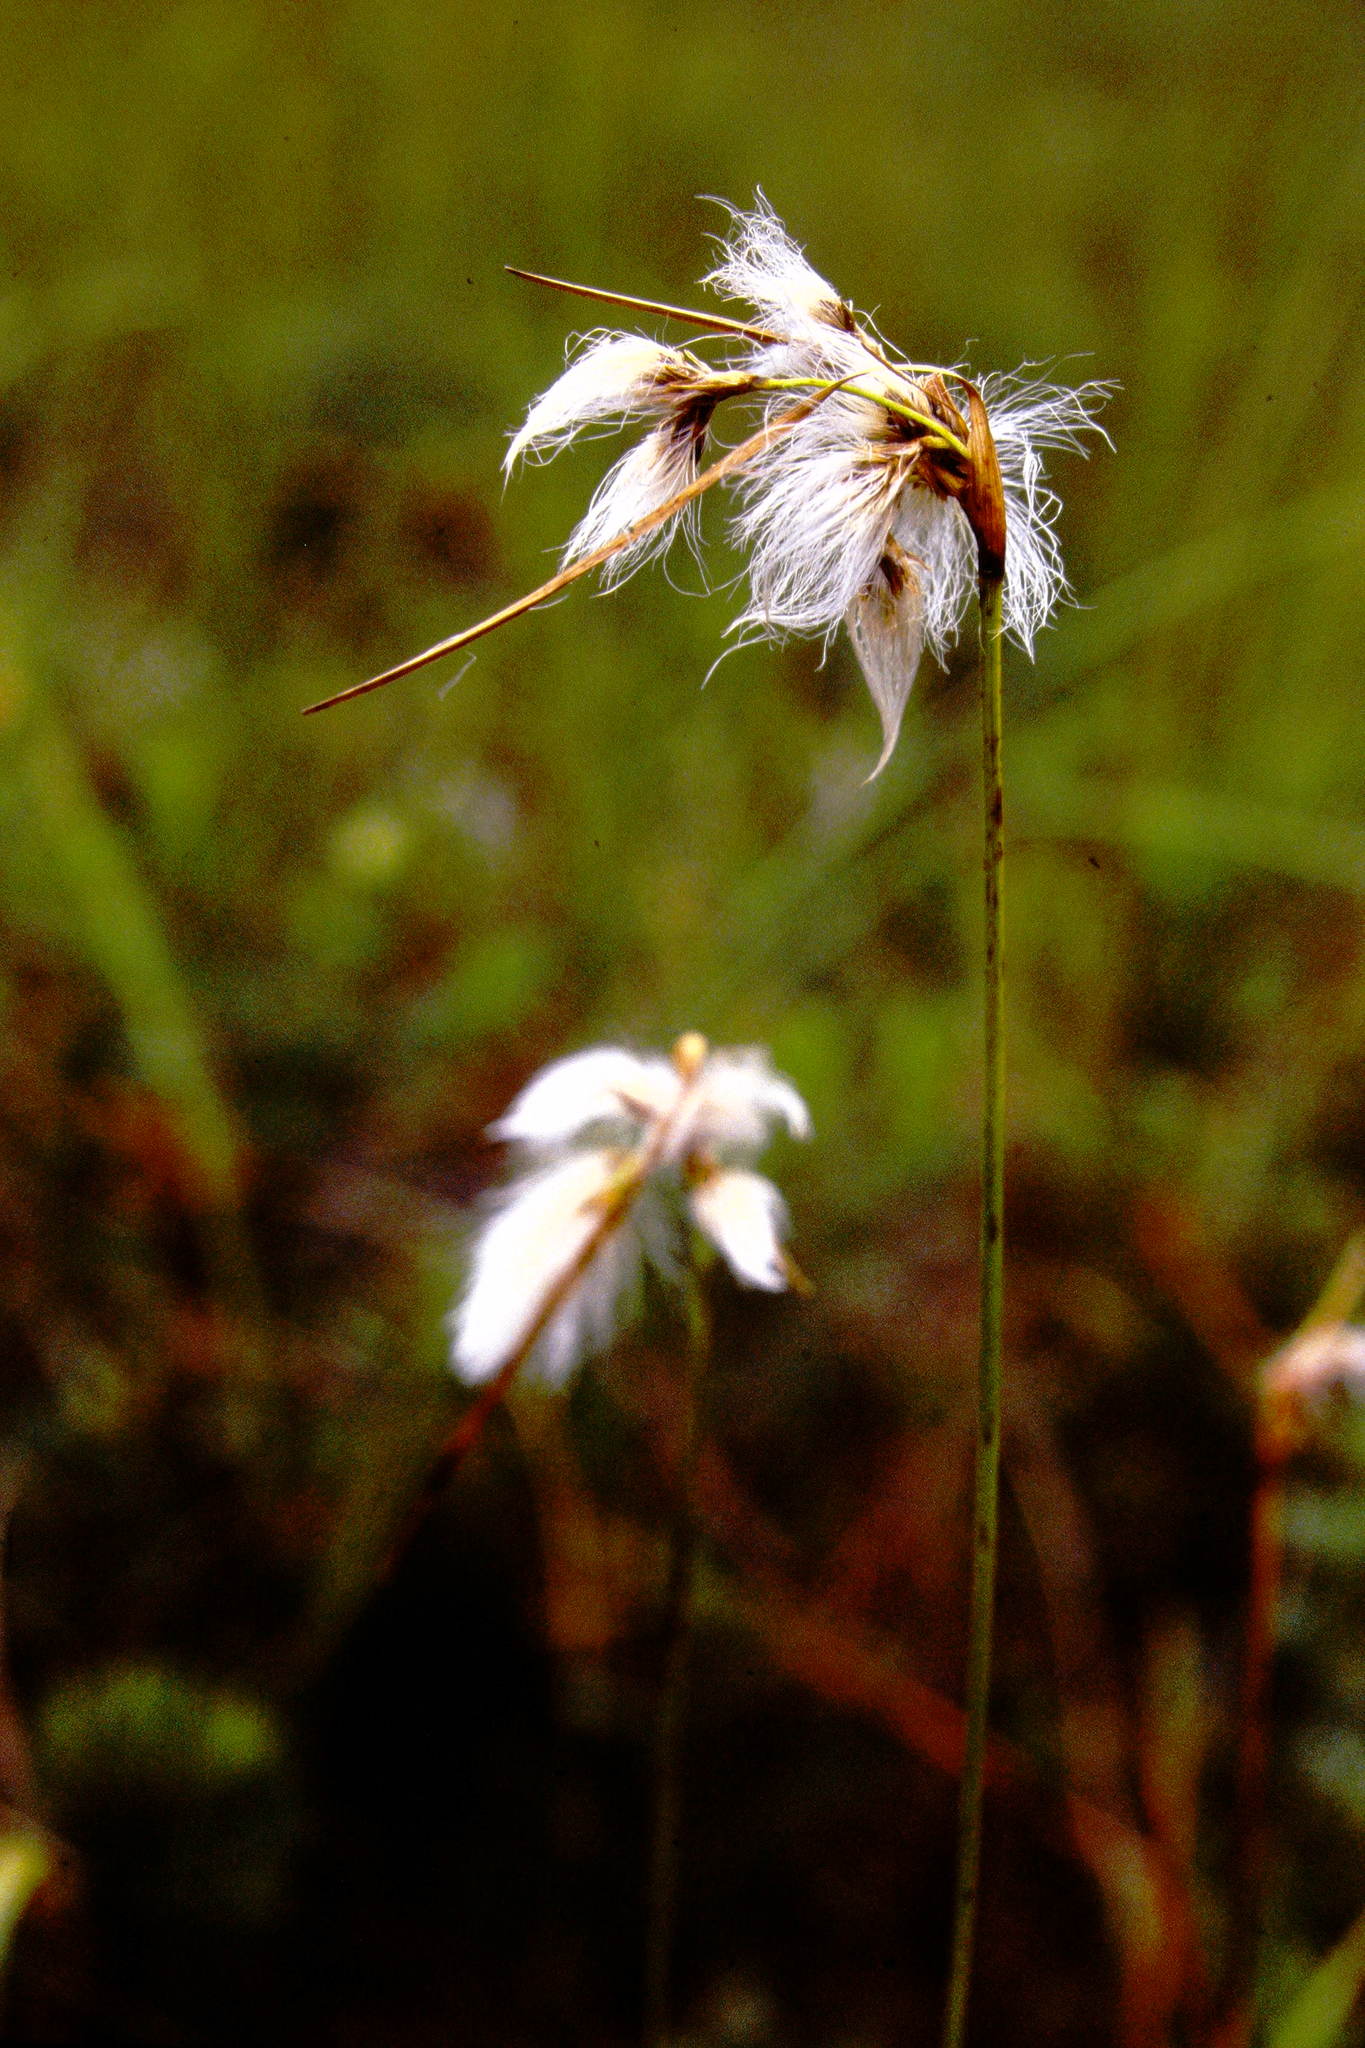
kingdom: Plantae
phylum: Tracheophyta
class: Liliopsida
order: Poales
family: Cyperaceae
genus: Eriophorum
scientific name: Eriophorum viridicarinatum
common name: Green-keeled cottongrass
